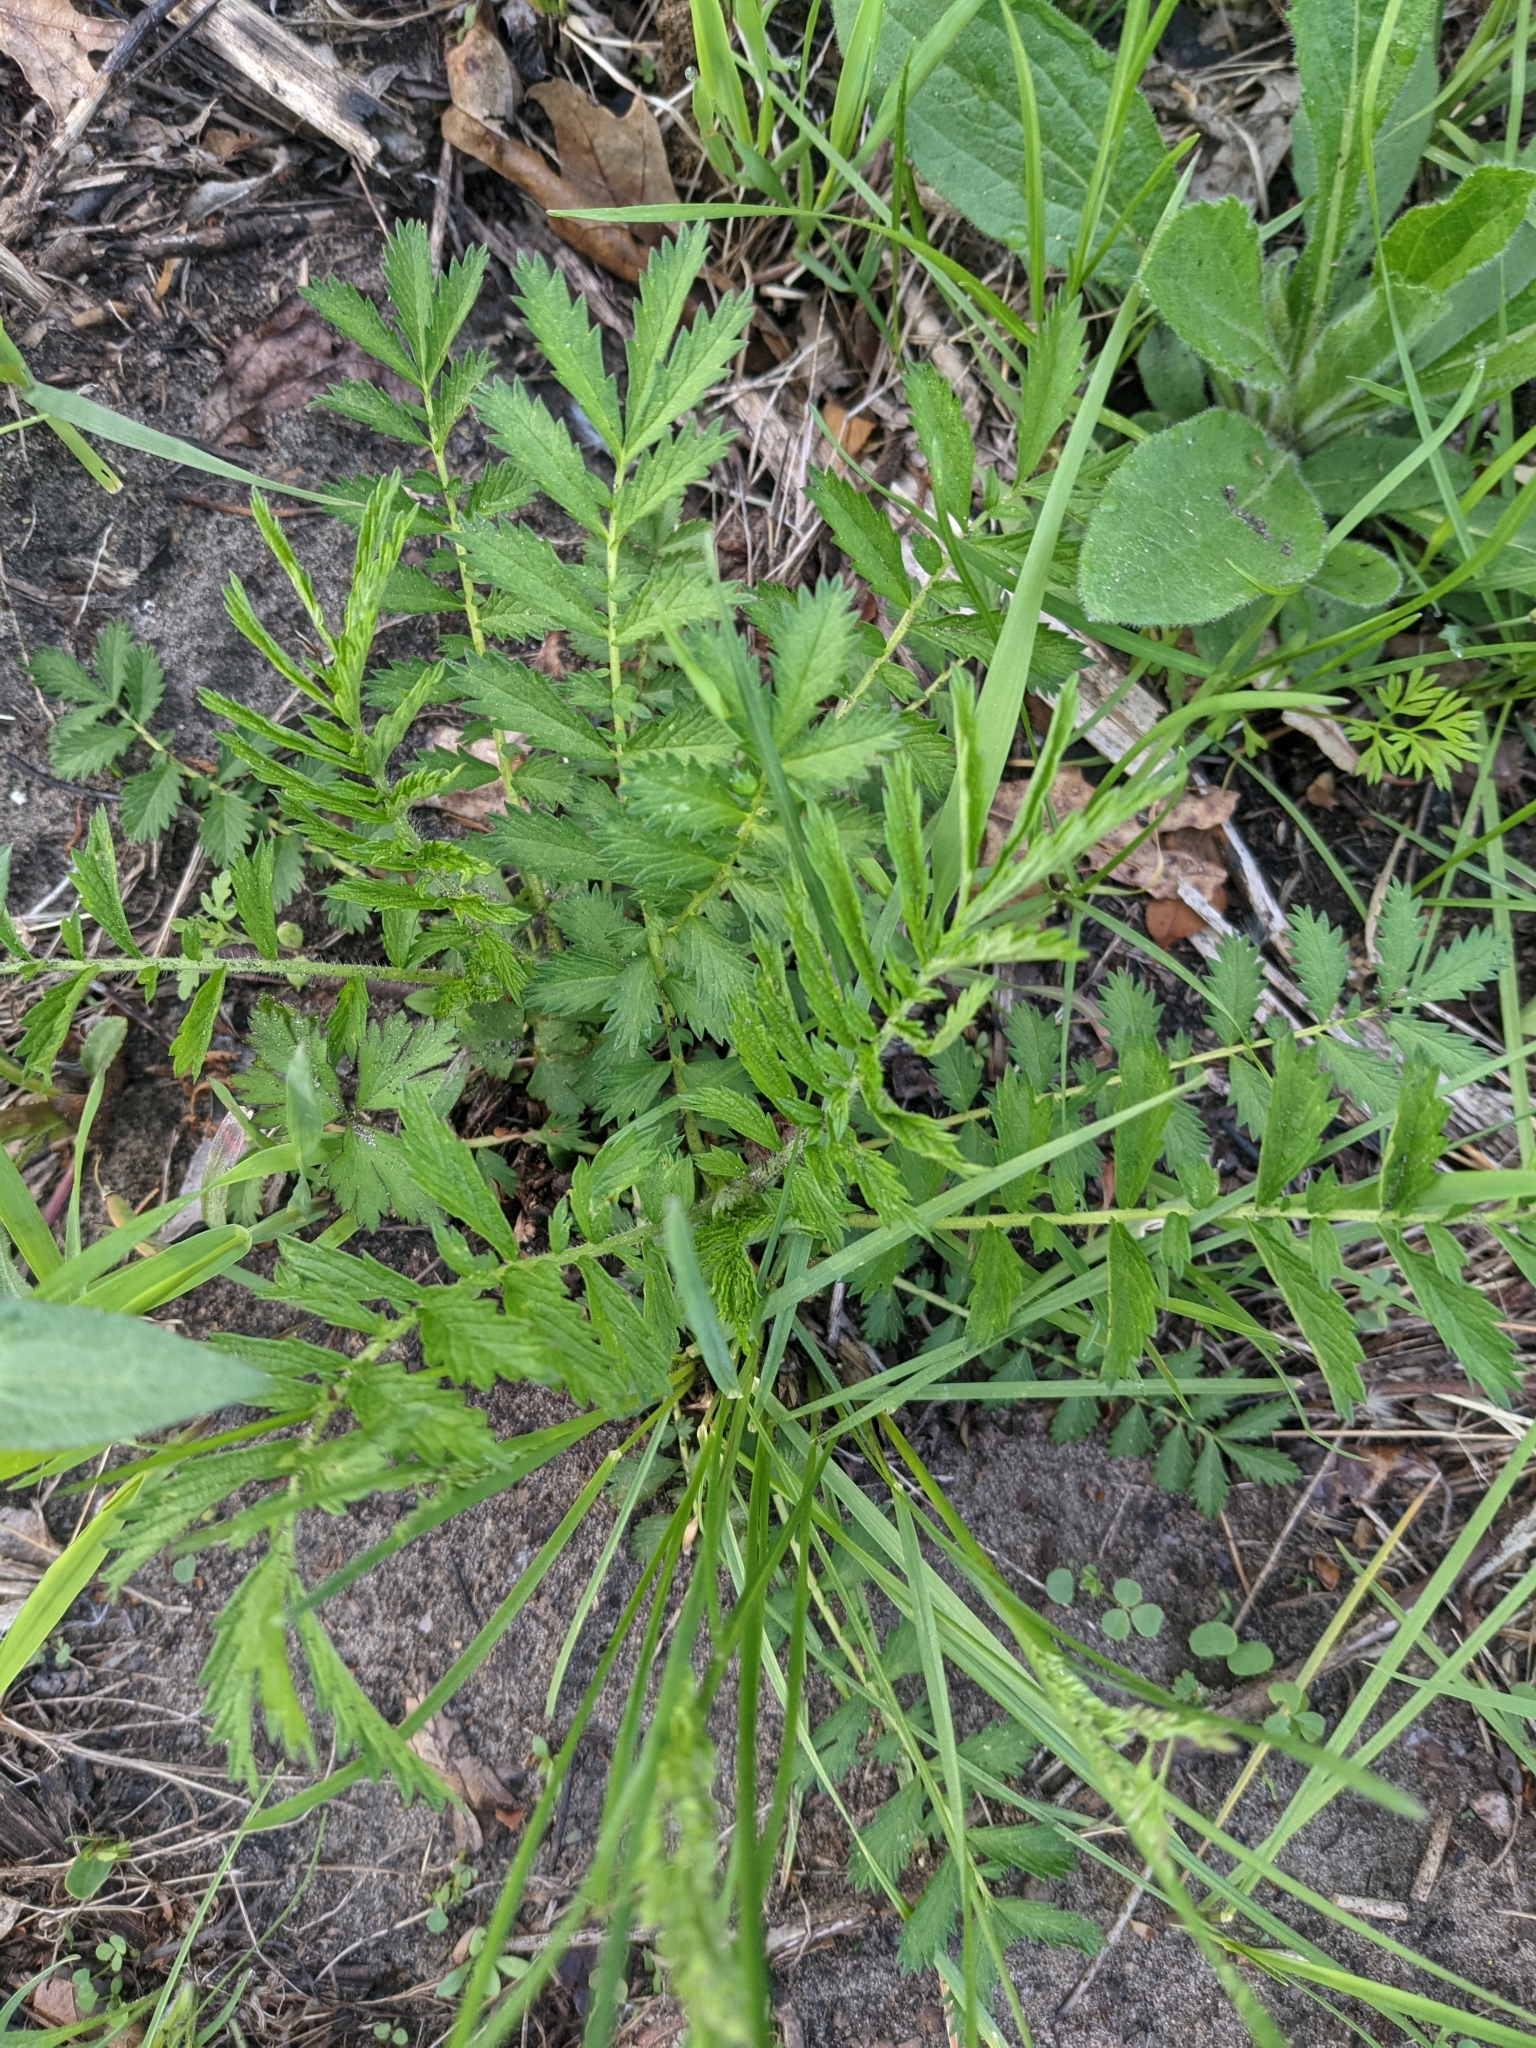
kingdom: Plantae
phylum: Tracheophyta
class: Magnoliopsida
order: Rosales
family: Rosaceae
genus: Agrimonia
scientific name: Agrimonia parviflora
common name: Harvest-lice
